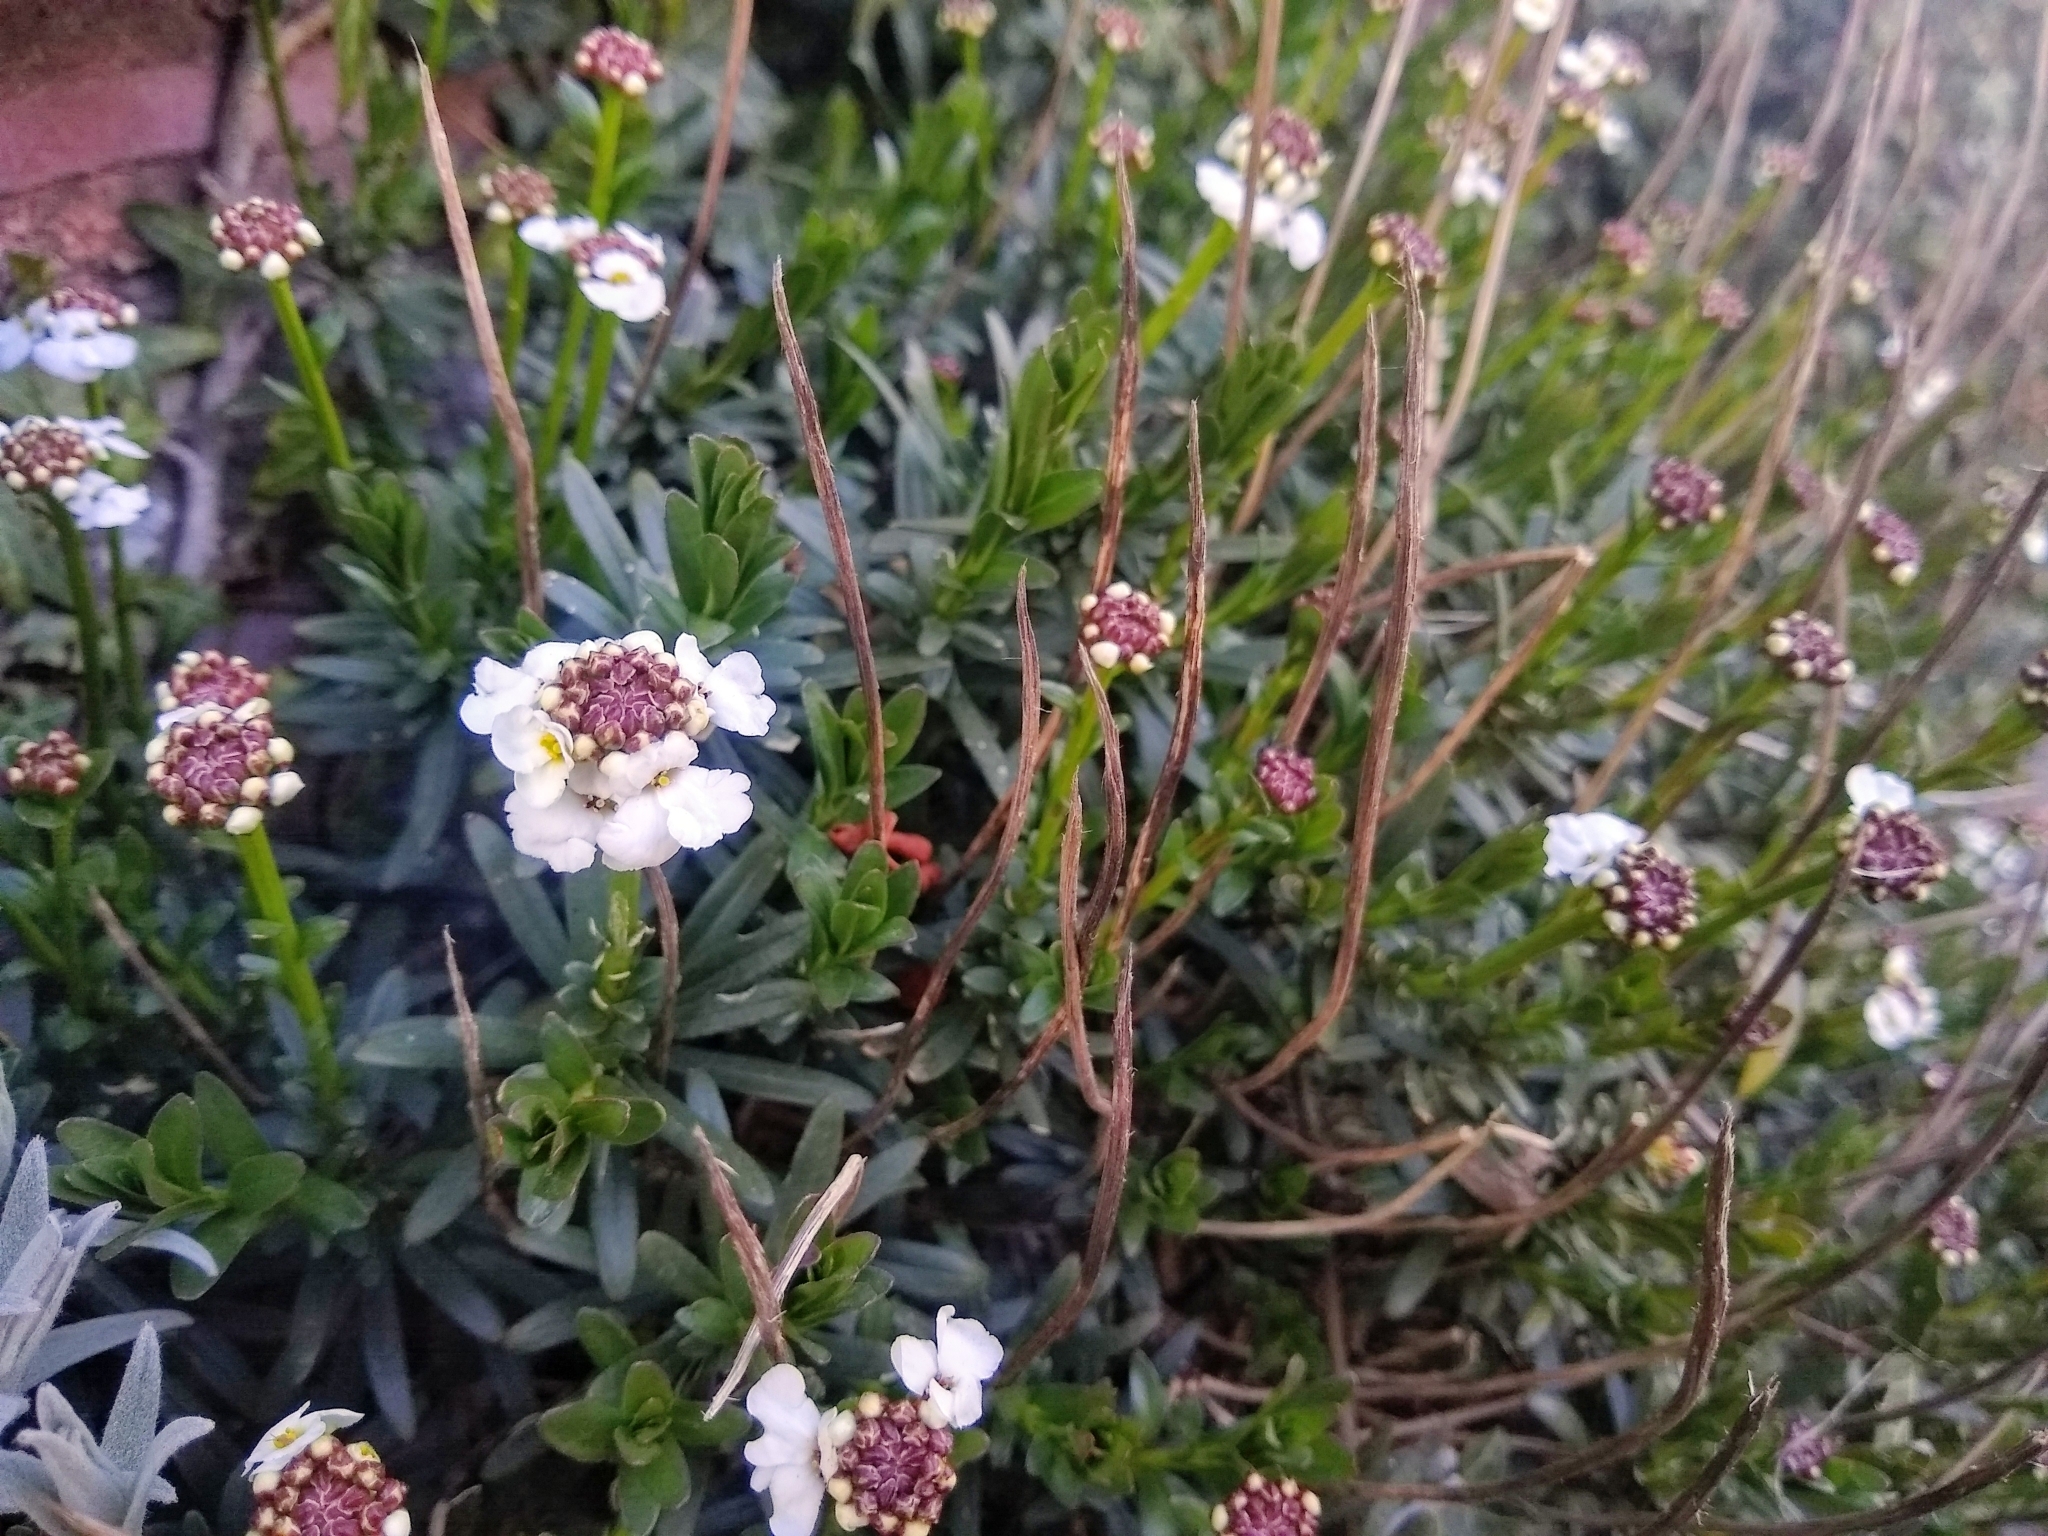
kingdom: Plantae
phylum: Tracheophyta
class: Magnoliopsida
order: Brassicales
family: Brassicaceae
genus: Iberis
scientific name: Iberis sempervirens
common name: Evergreen candytuft
